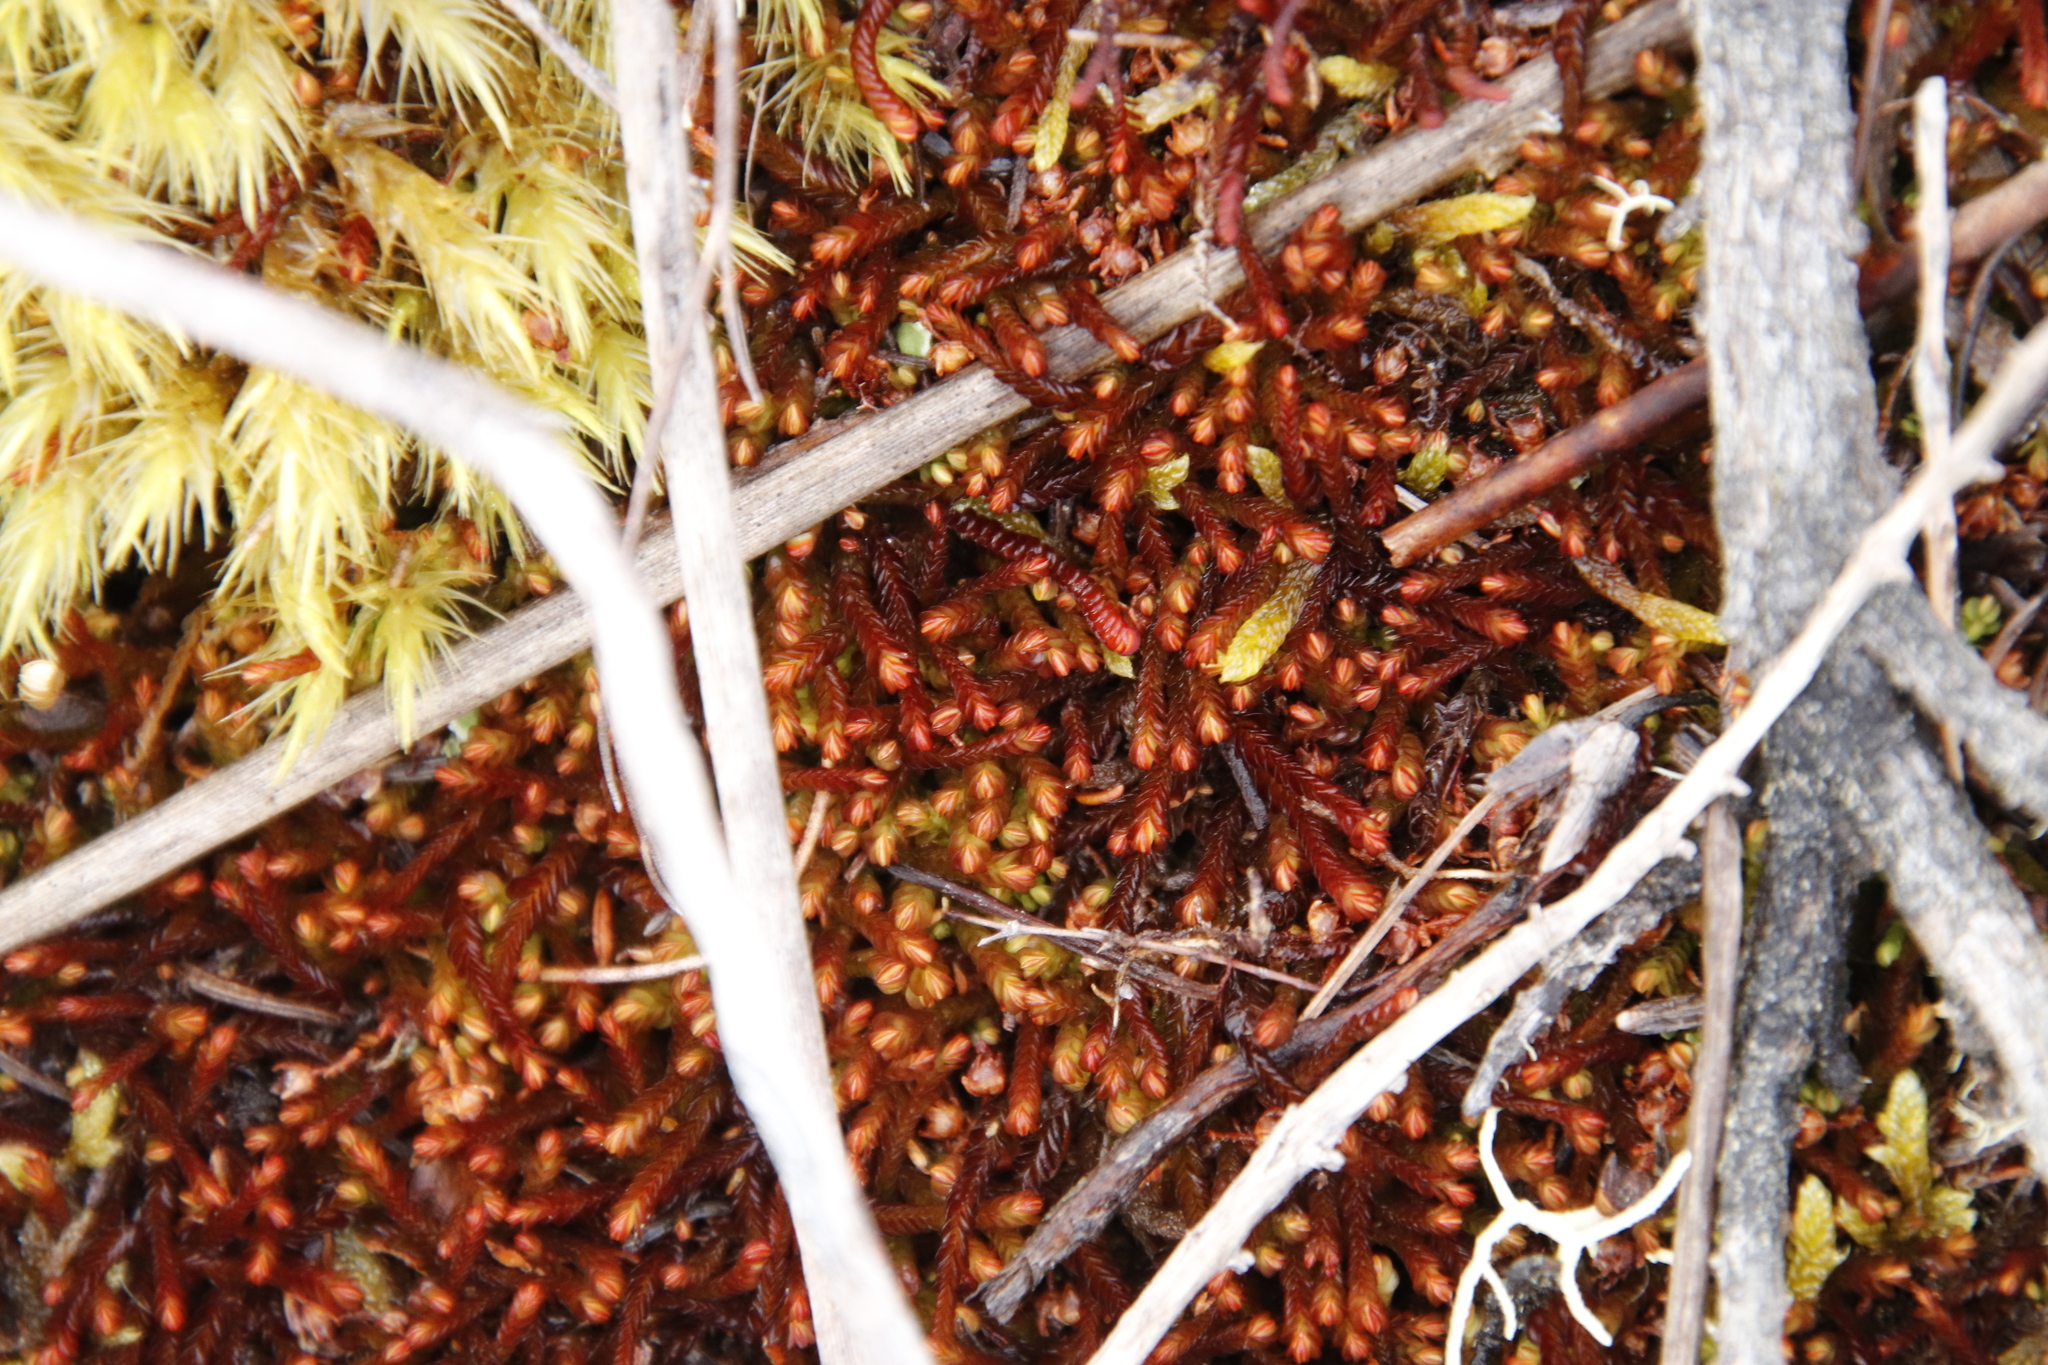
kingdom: Plantae
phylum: Marchantiophyta
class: Jungermanniopsida
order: Jungermanniales
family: Adelanthaceae
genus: Syzygiella
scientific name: Syzygiella colorata
